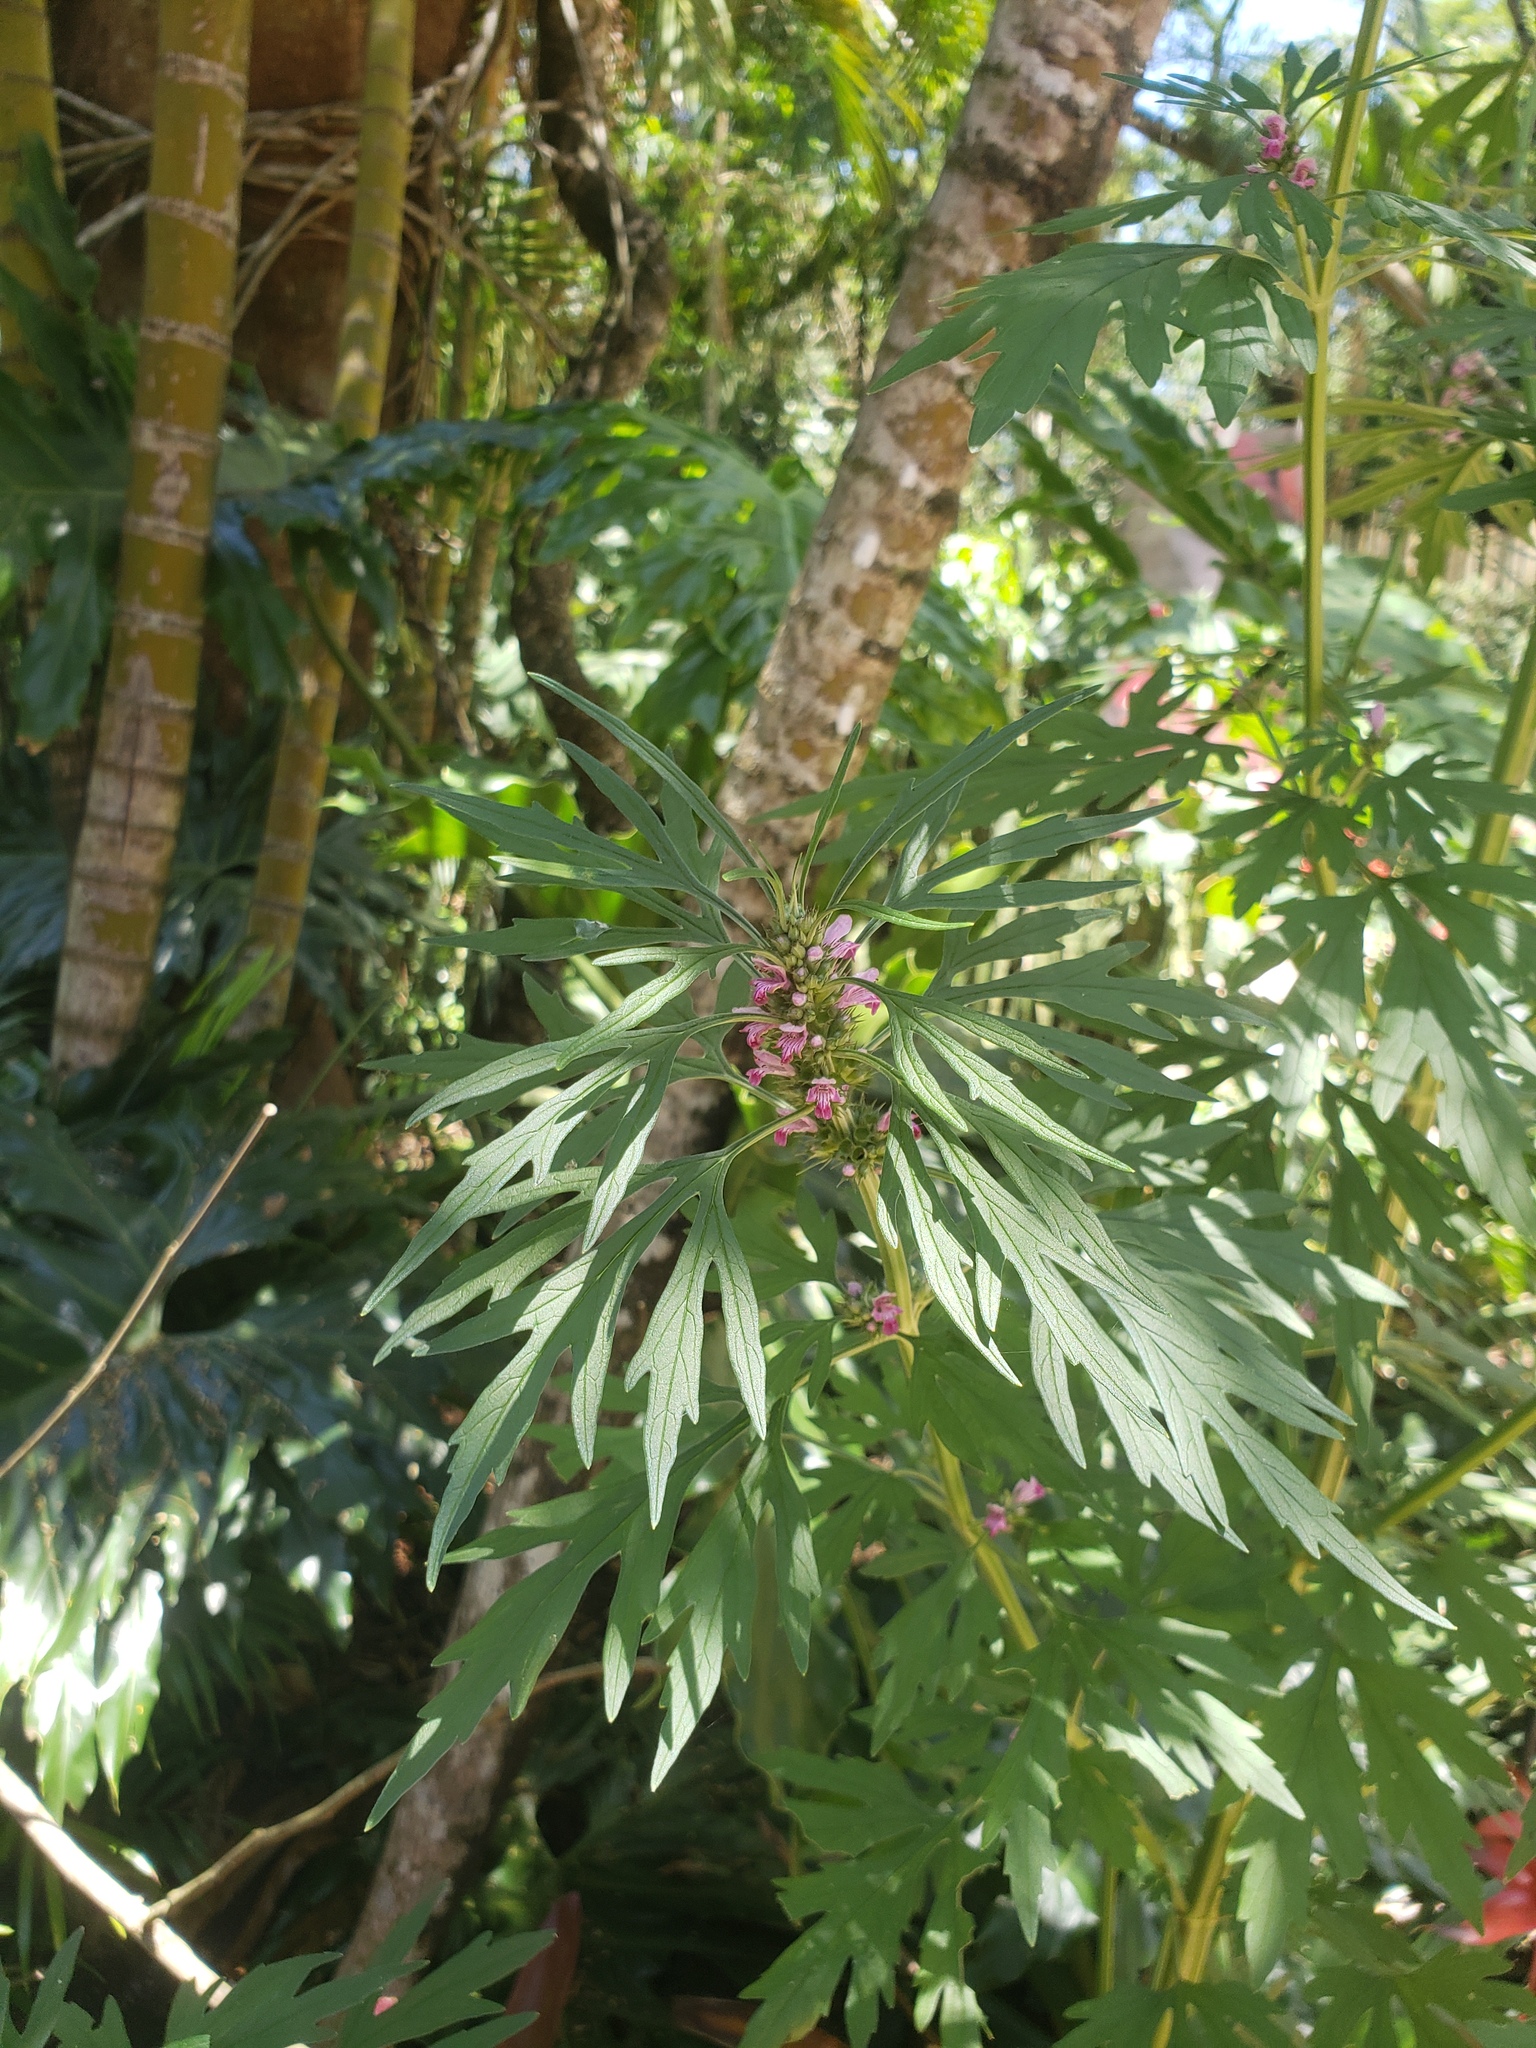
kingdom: Plantae
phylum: Tracheophyta
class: Magnoliopsida
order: Lamiales
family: Lamiaceae
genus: Leonurus
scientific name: Leonurus japonicus
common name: Honeyweed
